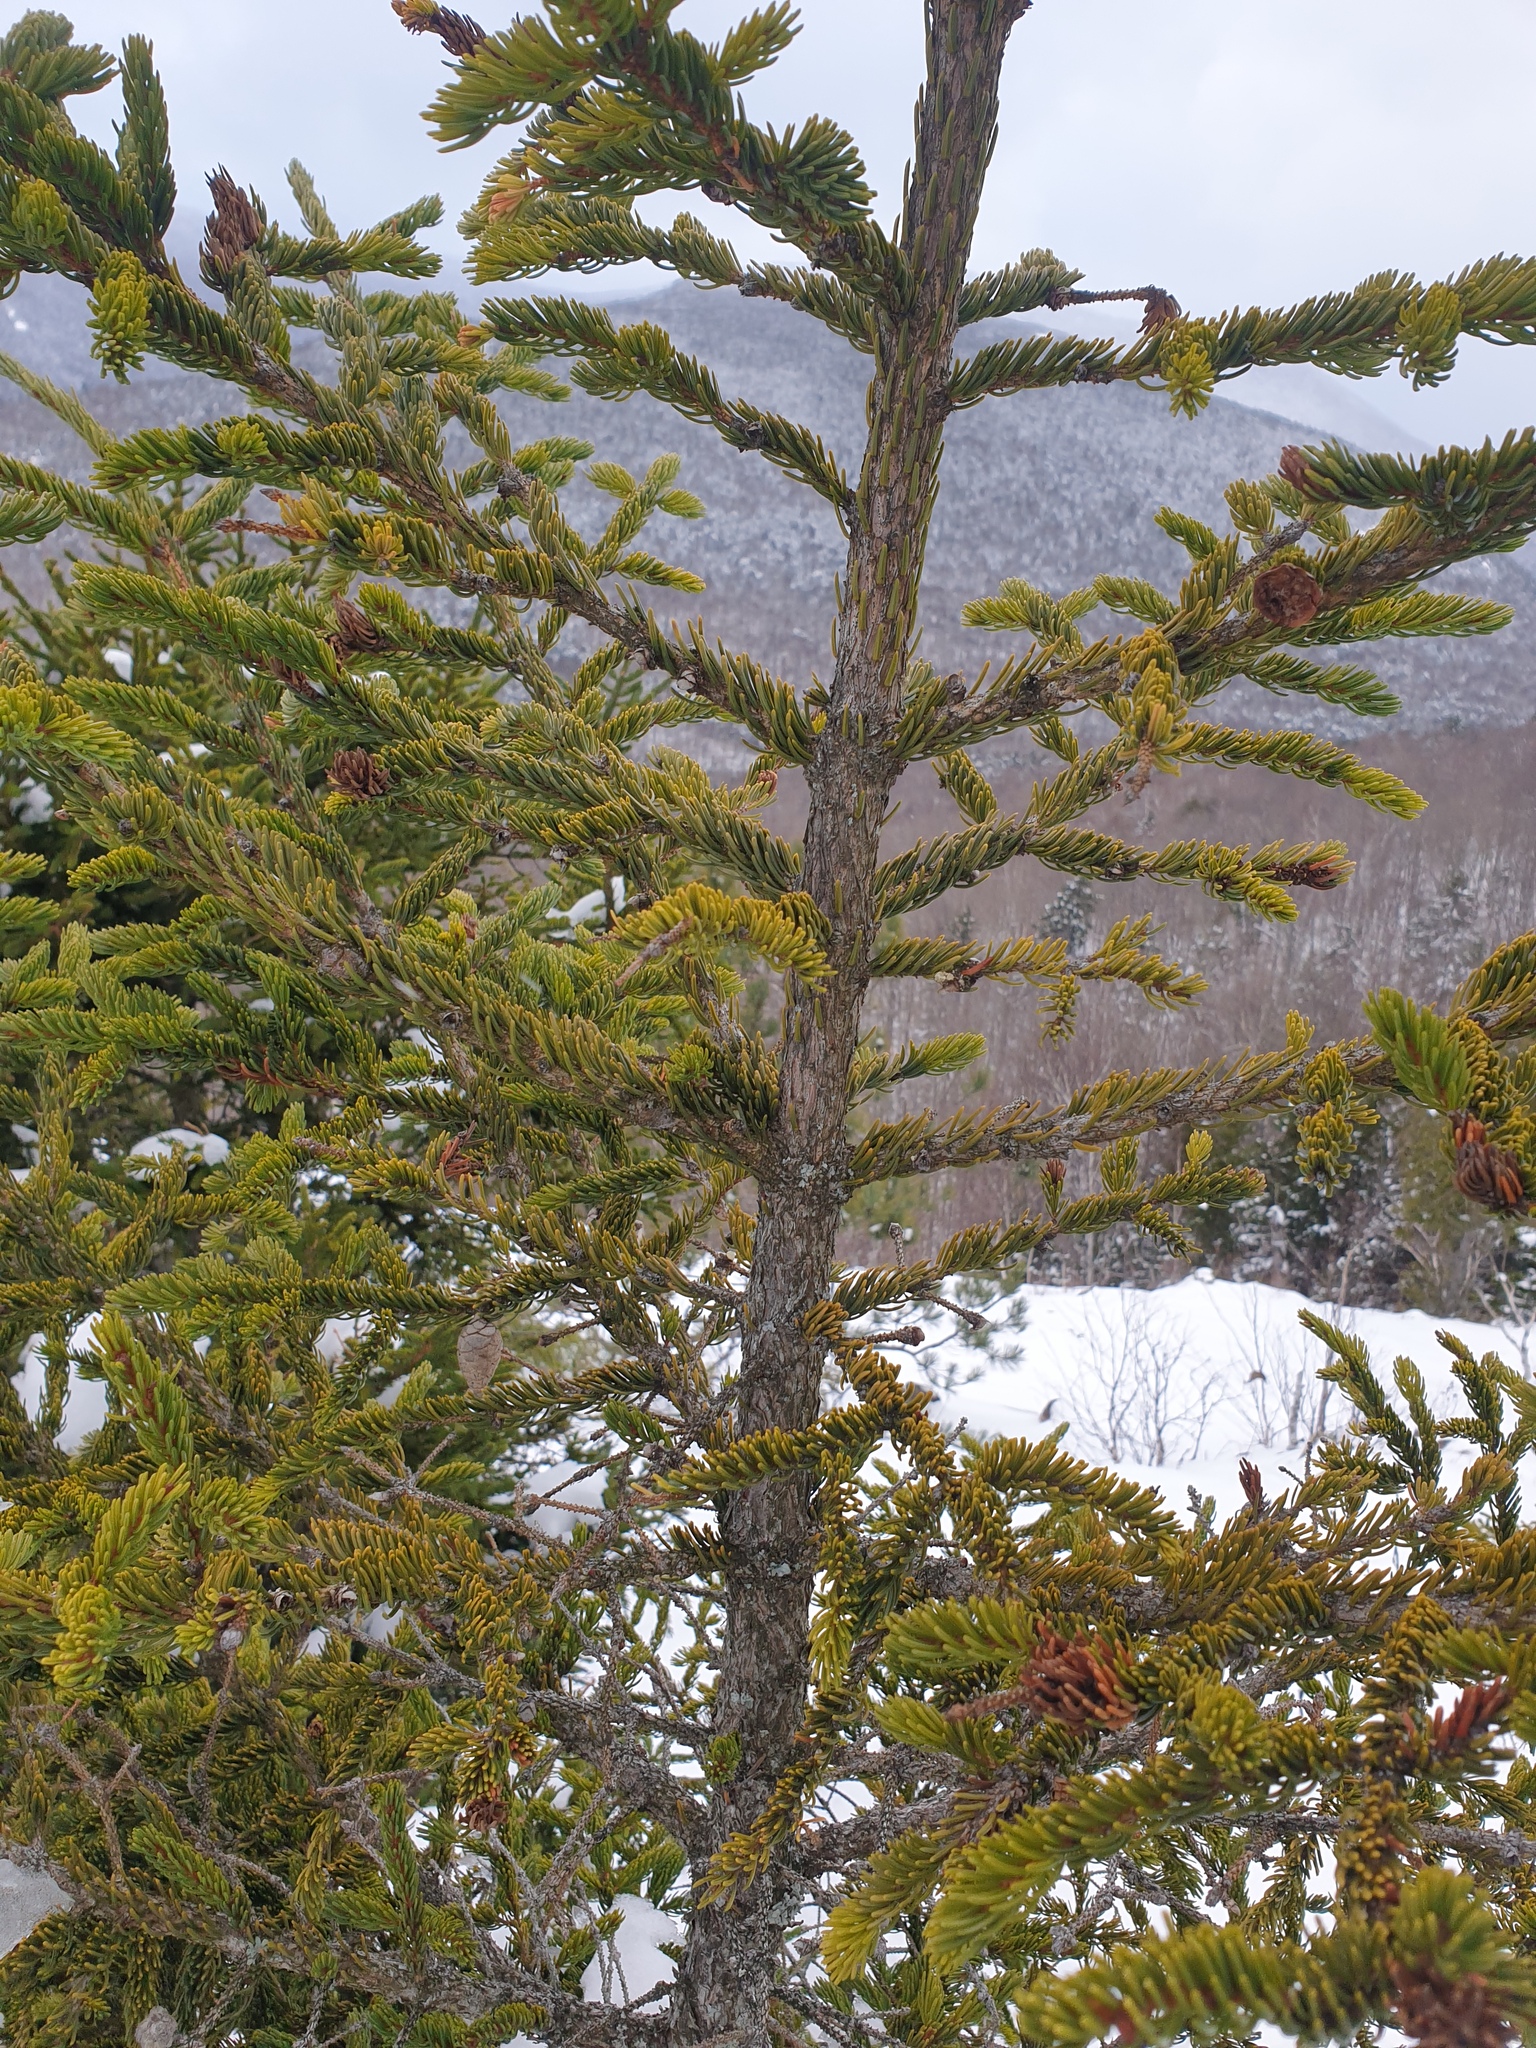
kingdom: Plantae
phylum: Tracheophyta
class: Pinopsida
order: Pinales
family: Pinaceae
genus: Picea
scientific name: Picea rubens
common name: Red spruce
